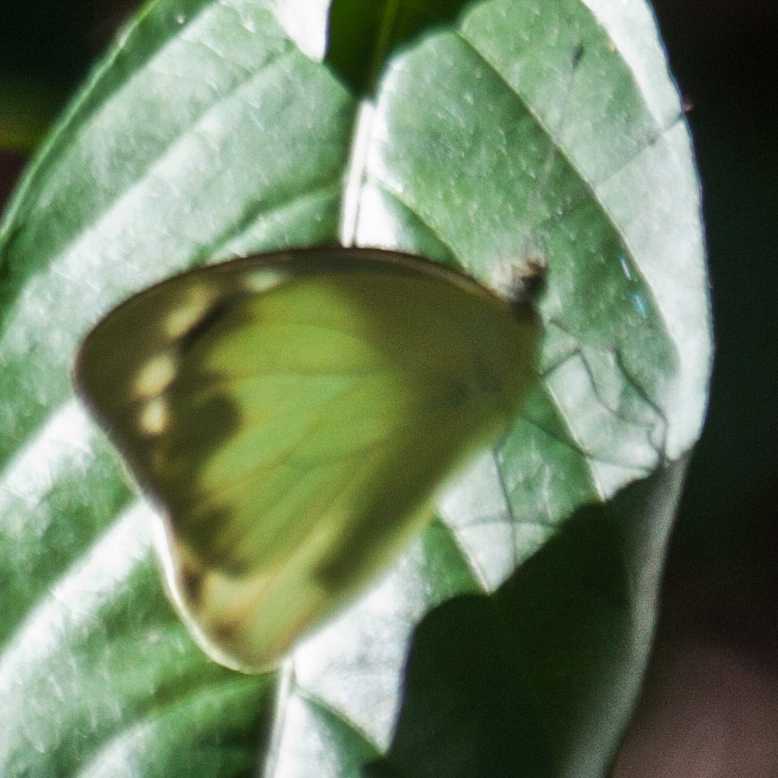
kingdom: Animalia
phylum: Arthropoda
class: Insecta
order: Lepidoptera
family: Pieridae
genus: Catopsilia
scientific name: Catopsilia pomona
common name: Common emigrant
